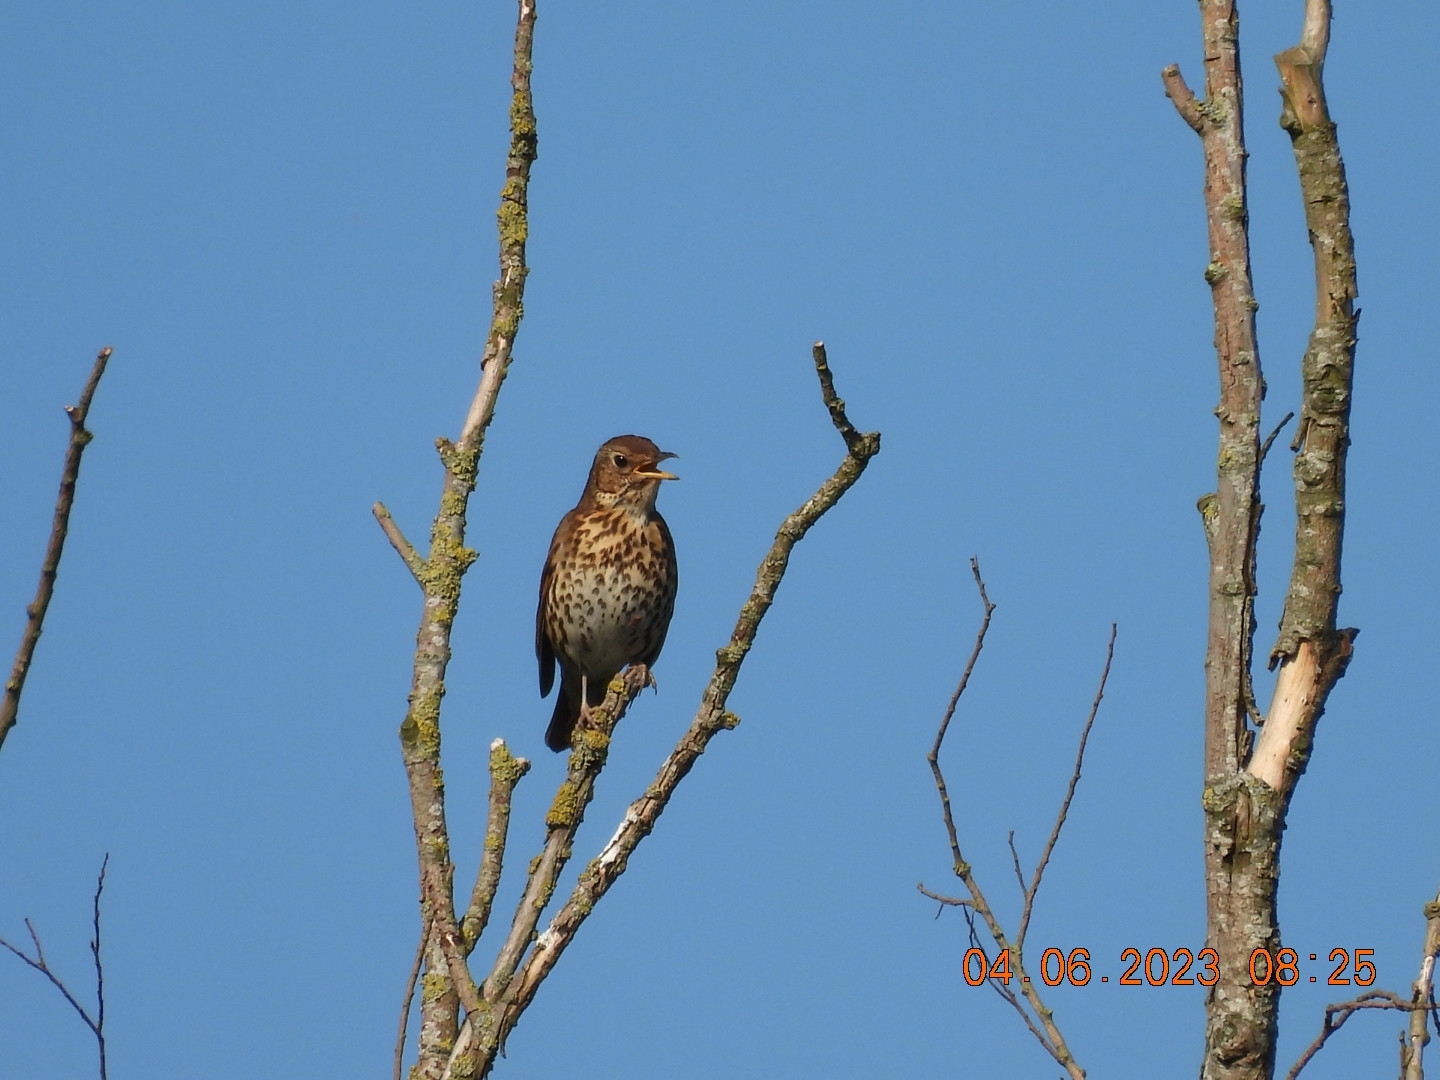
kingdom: Animalia
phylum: Chordata
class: Aves
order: Passeriformes
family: Turdidae
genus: Turdus
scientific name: Turdus philomelos
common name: Song thrush
